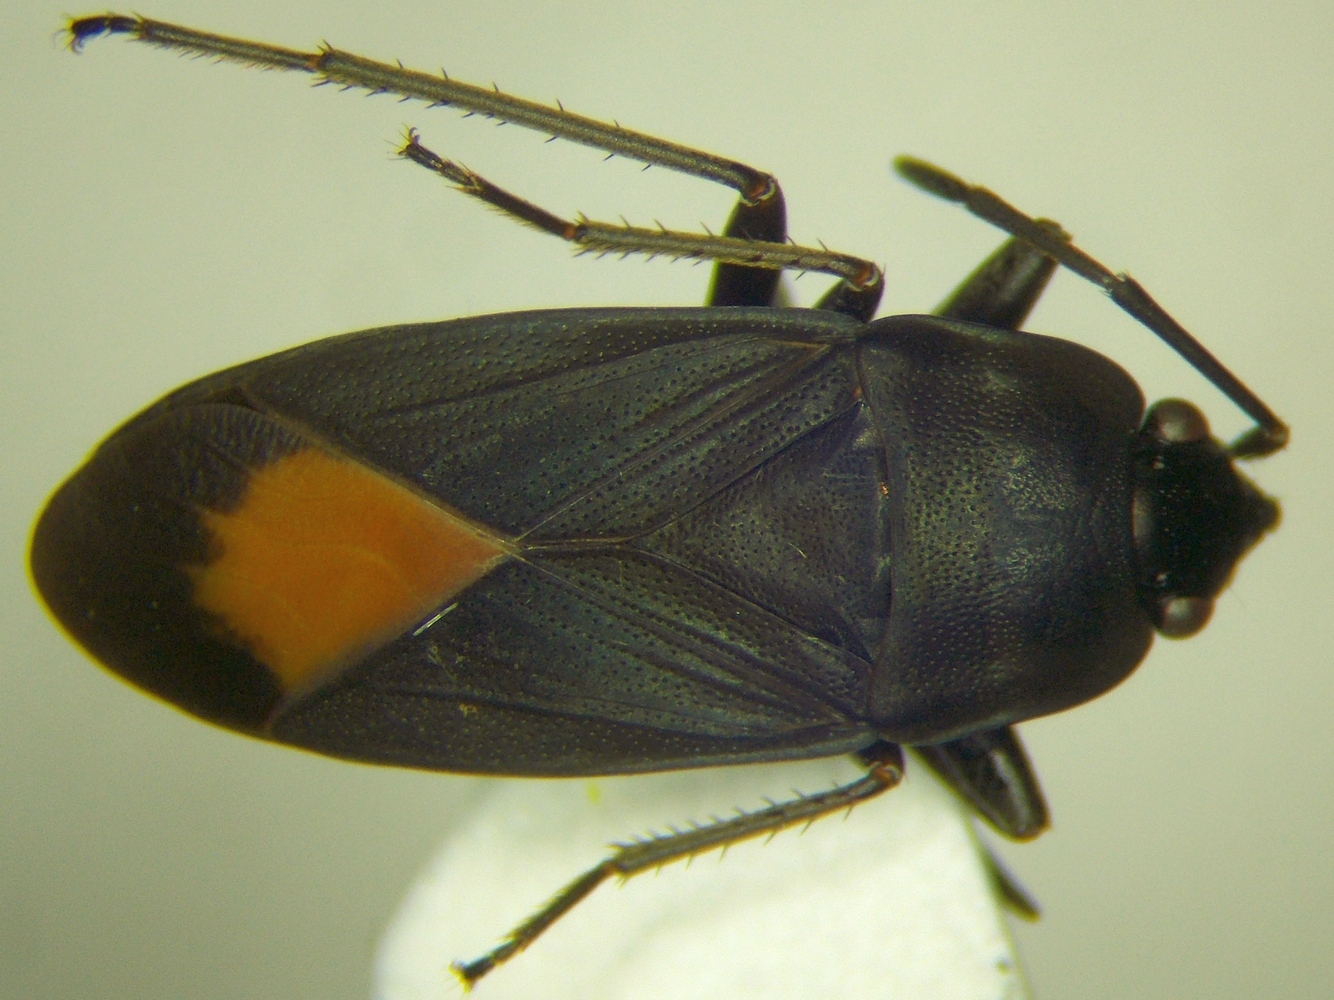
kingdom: Animalia
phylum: Arthropoda
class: Insecta
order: Hemiptera
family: Rhyparochromidae
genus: Aphanus
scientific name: Aphanus rolandri
